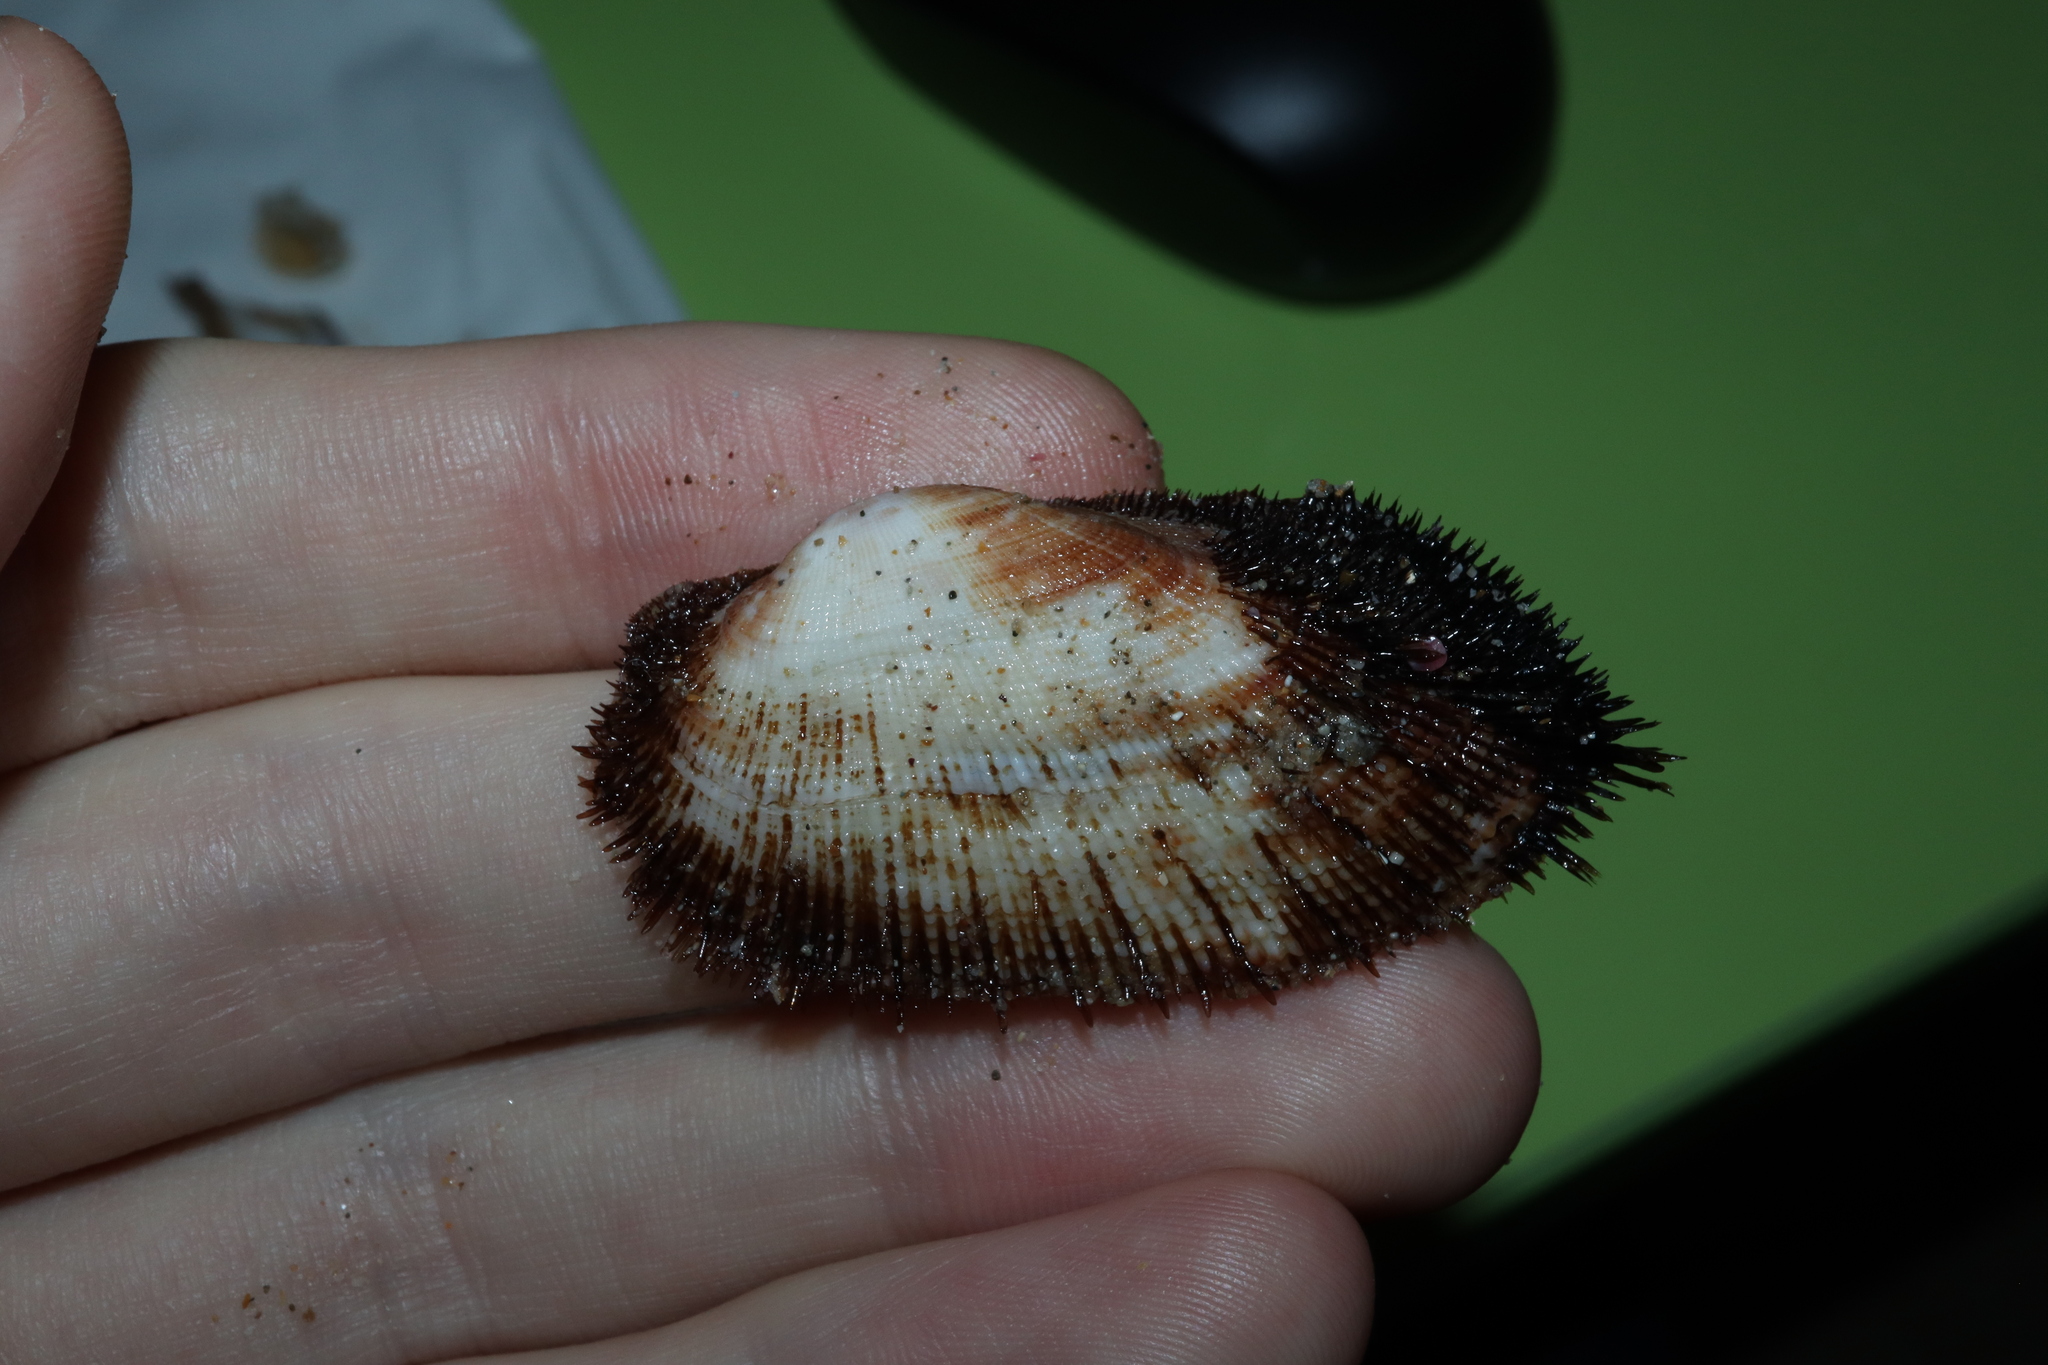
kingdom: Animalia
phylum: Mollusca
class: Bivalvia
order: Arcida
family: Arcidae
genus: Barbatia
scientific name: Barbatia pistachia
